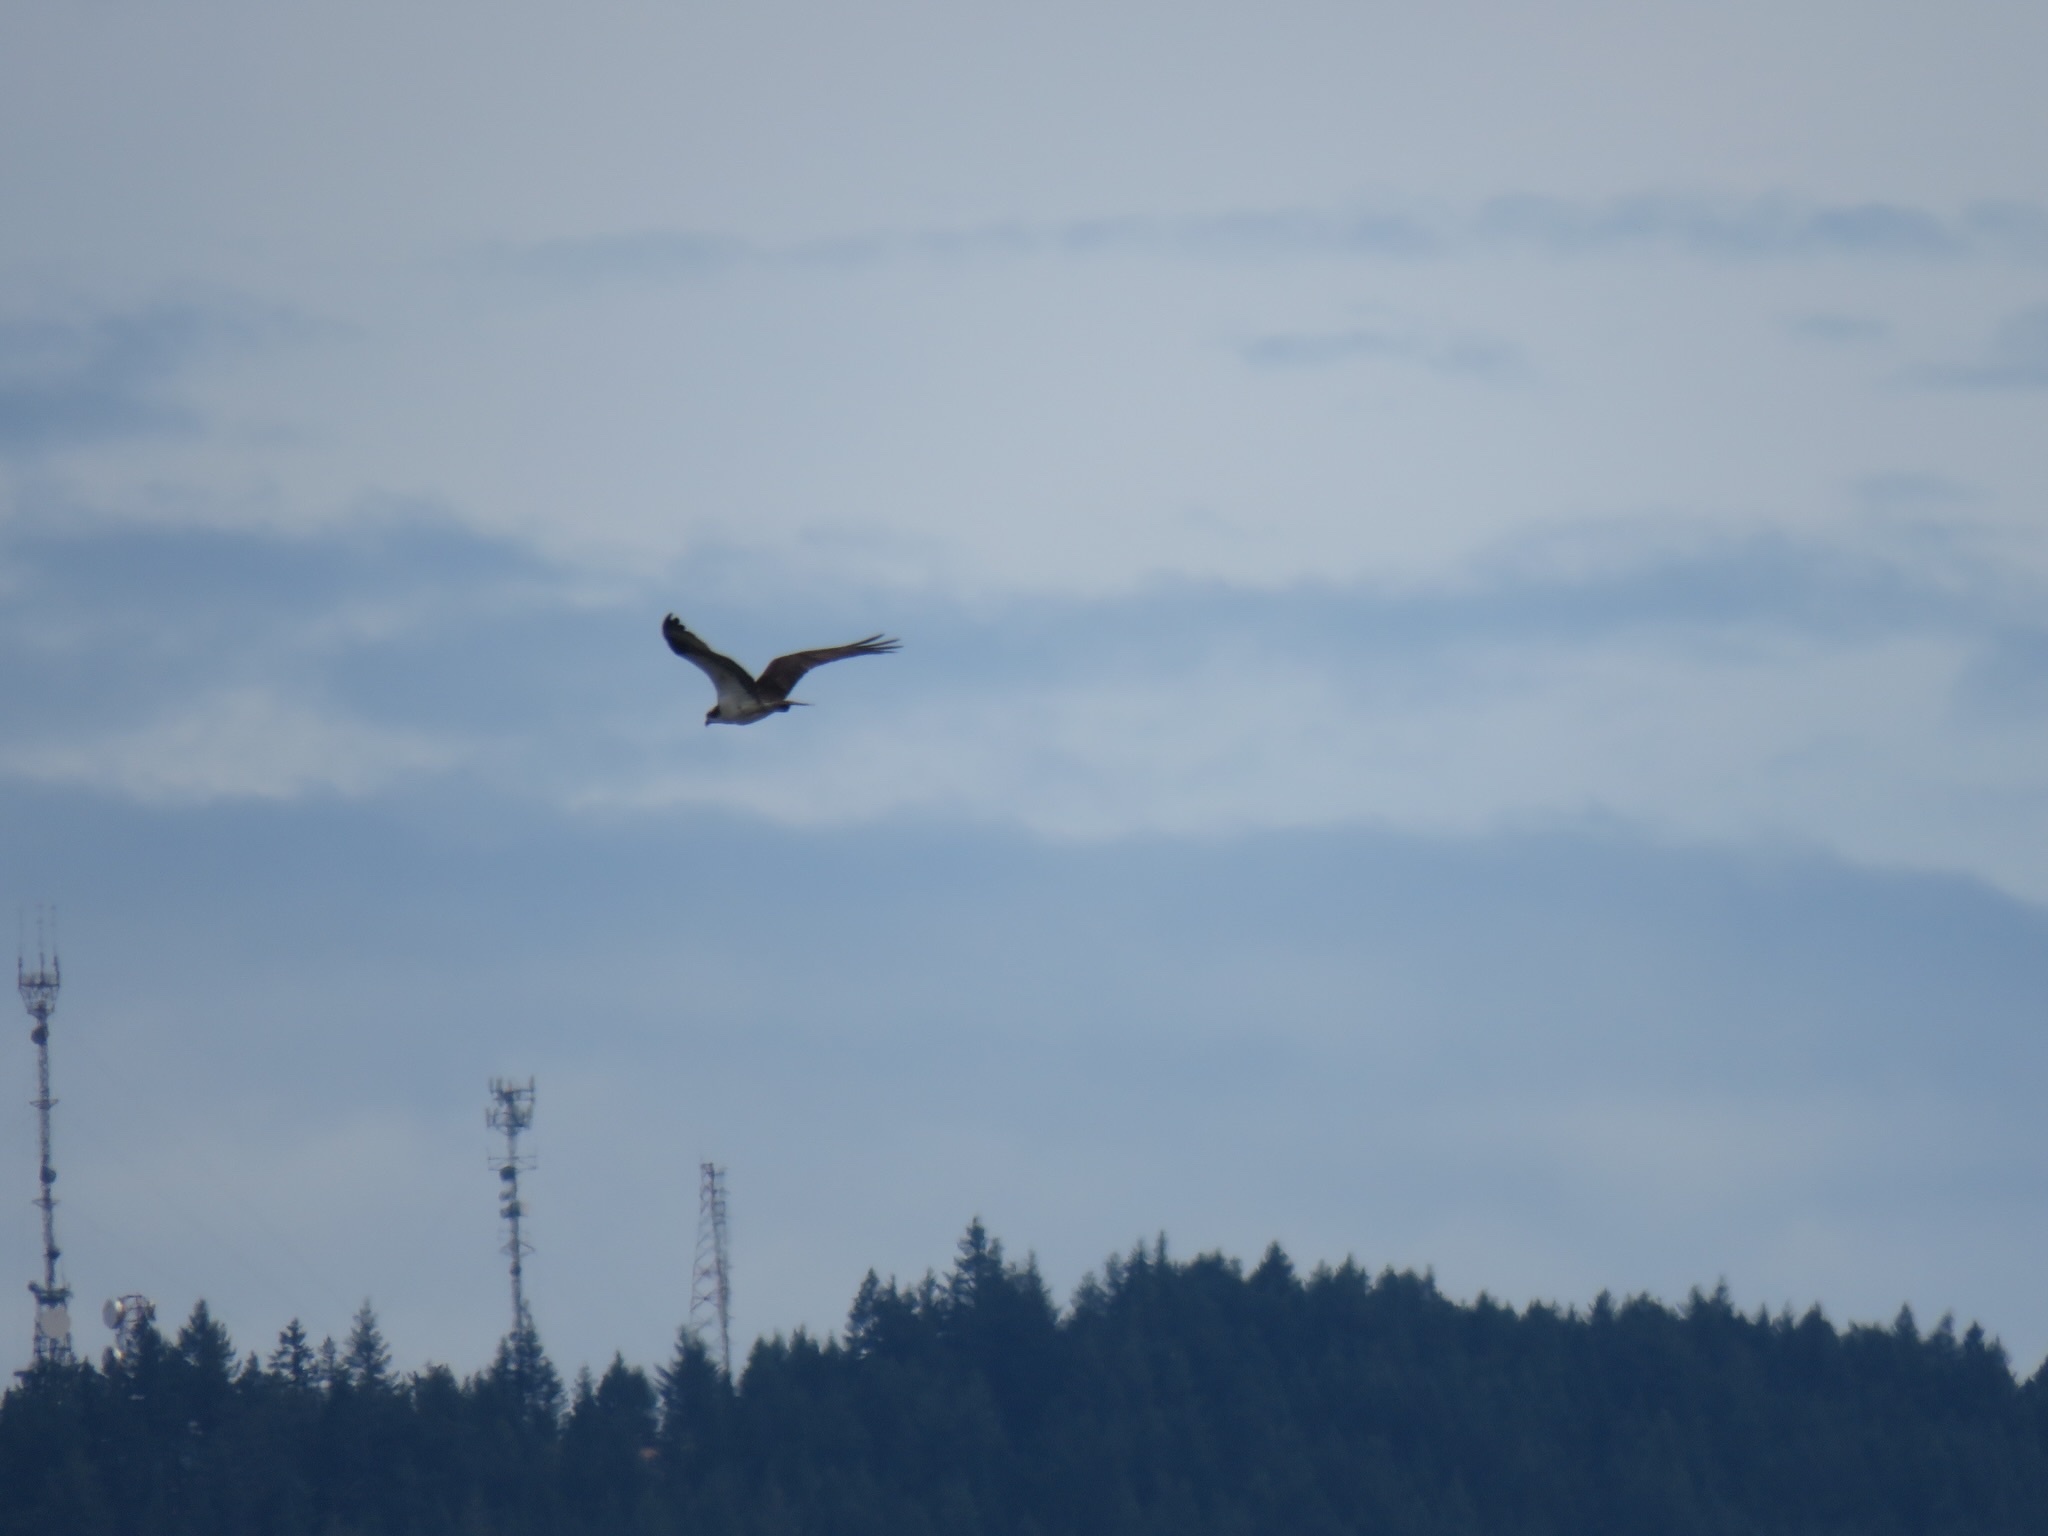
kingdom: Animalia
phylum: Chordata
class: Aves
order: Accipitriformes
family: Pandionidae
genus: Pandion
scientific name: Pandion haliaetus
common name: Osprey
